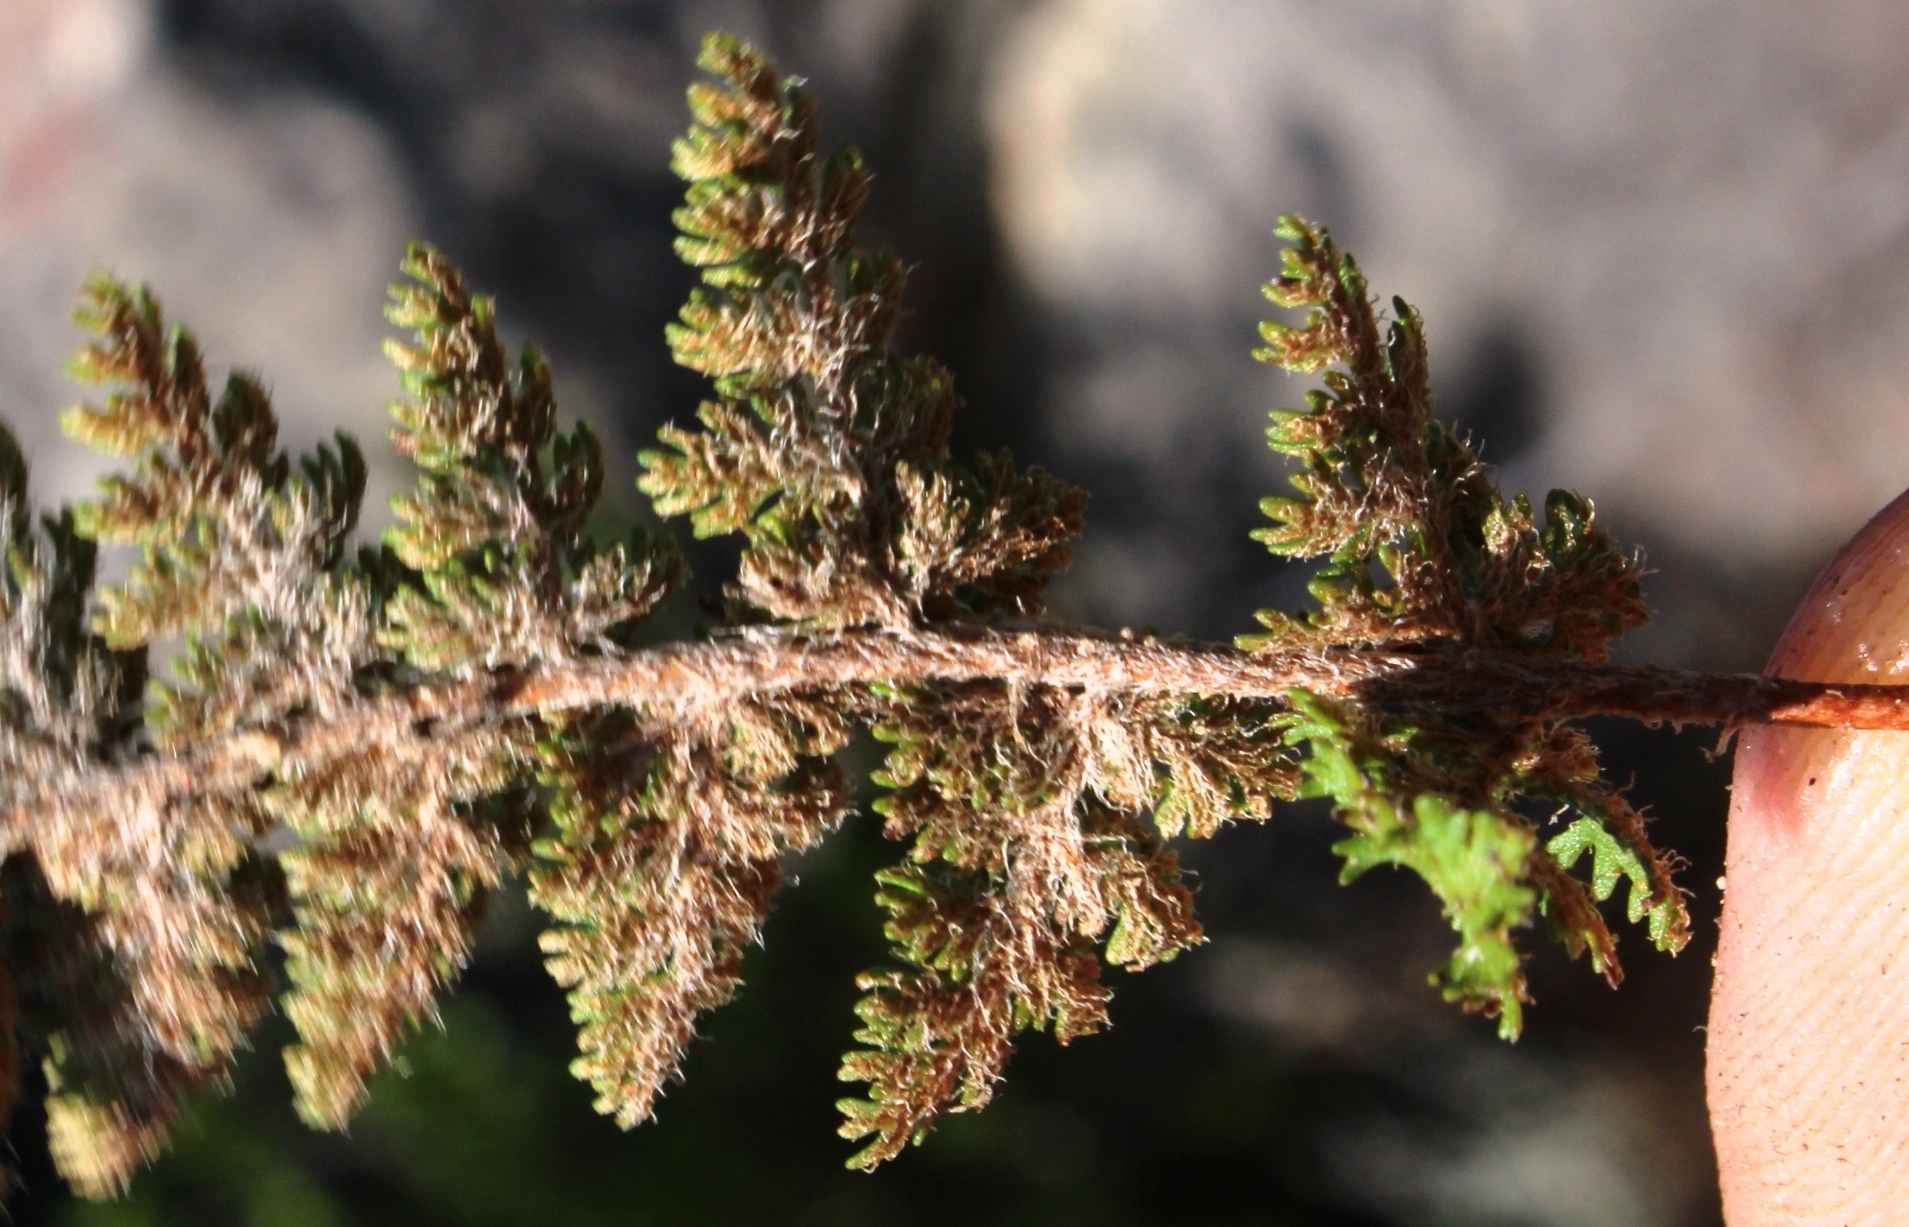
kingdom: Plantae
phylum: Tracheophyta
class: Polypodiopsida
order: Schizaeales
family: Anemiaceae
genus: Anemia
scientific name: Anemia caffrorum
